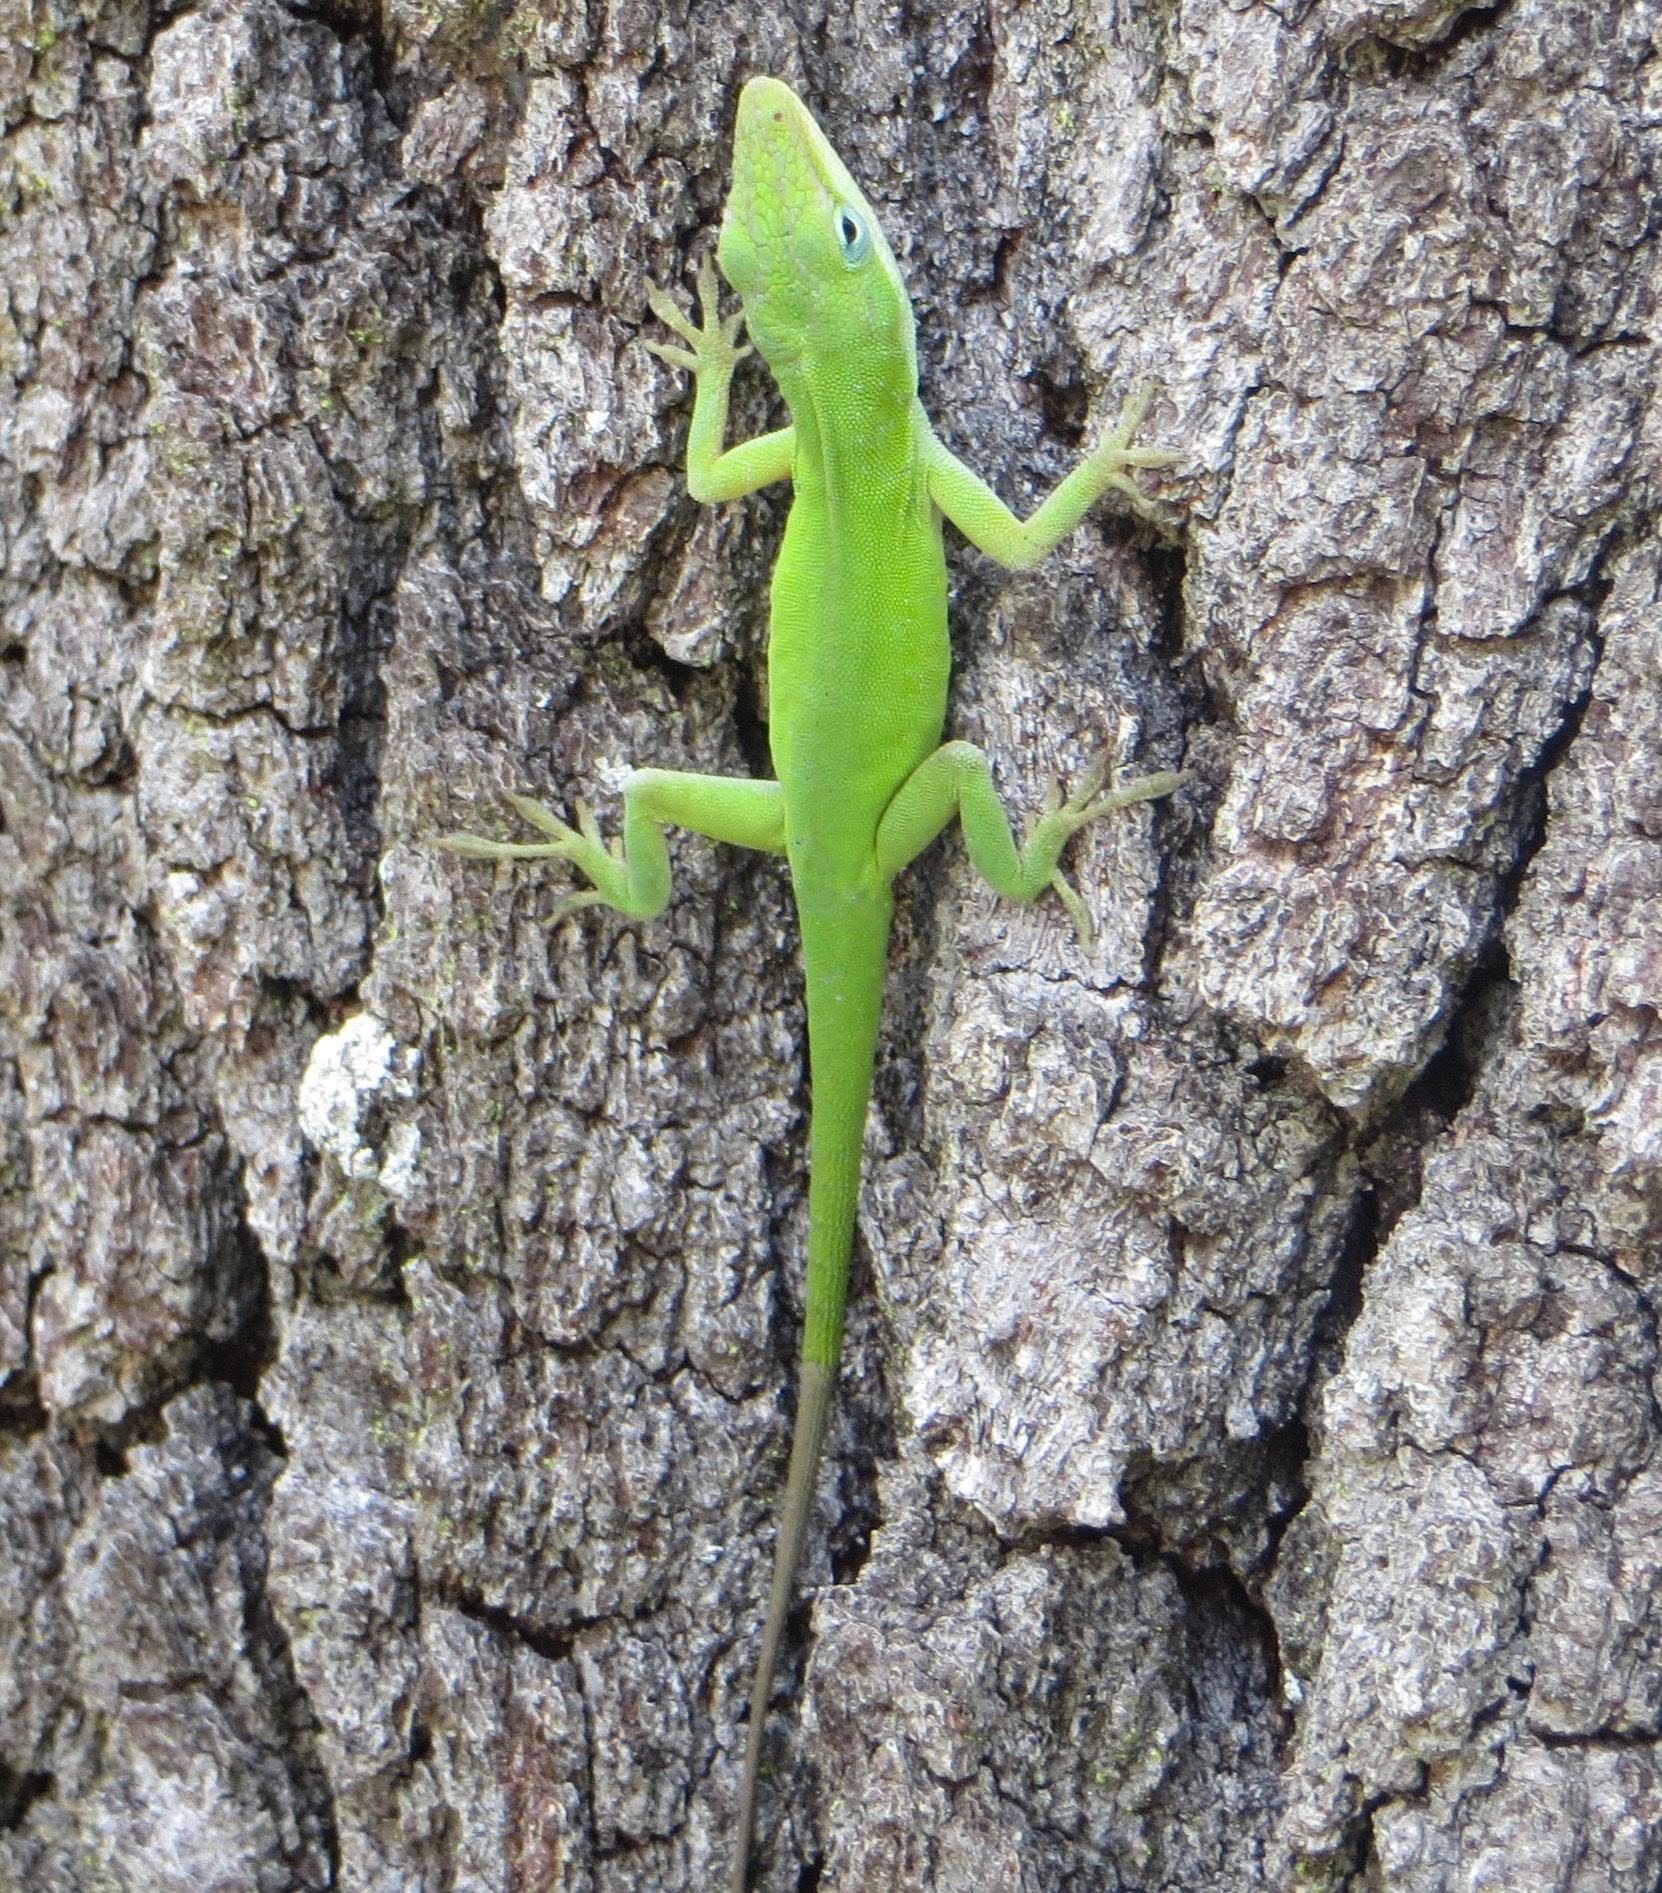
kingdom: Animalia
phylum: Chordata
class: Squamata
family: Dactyloidae
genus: Anolis
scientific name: Anolis carolinensis
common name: Green anole
